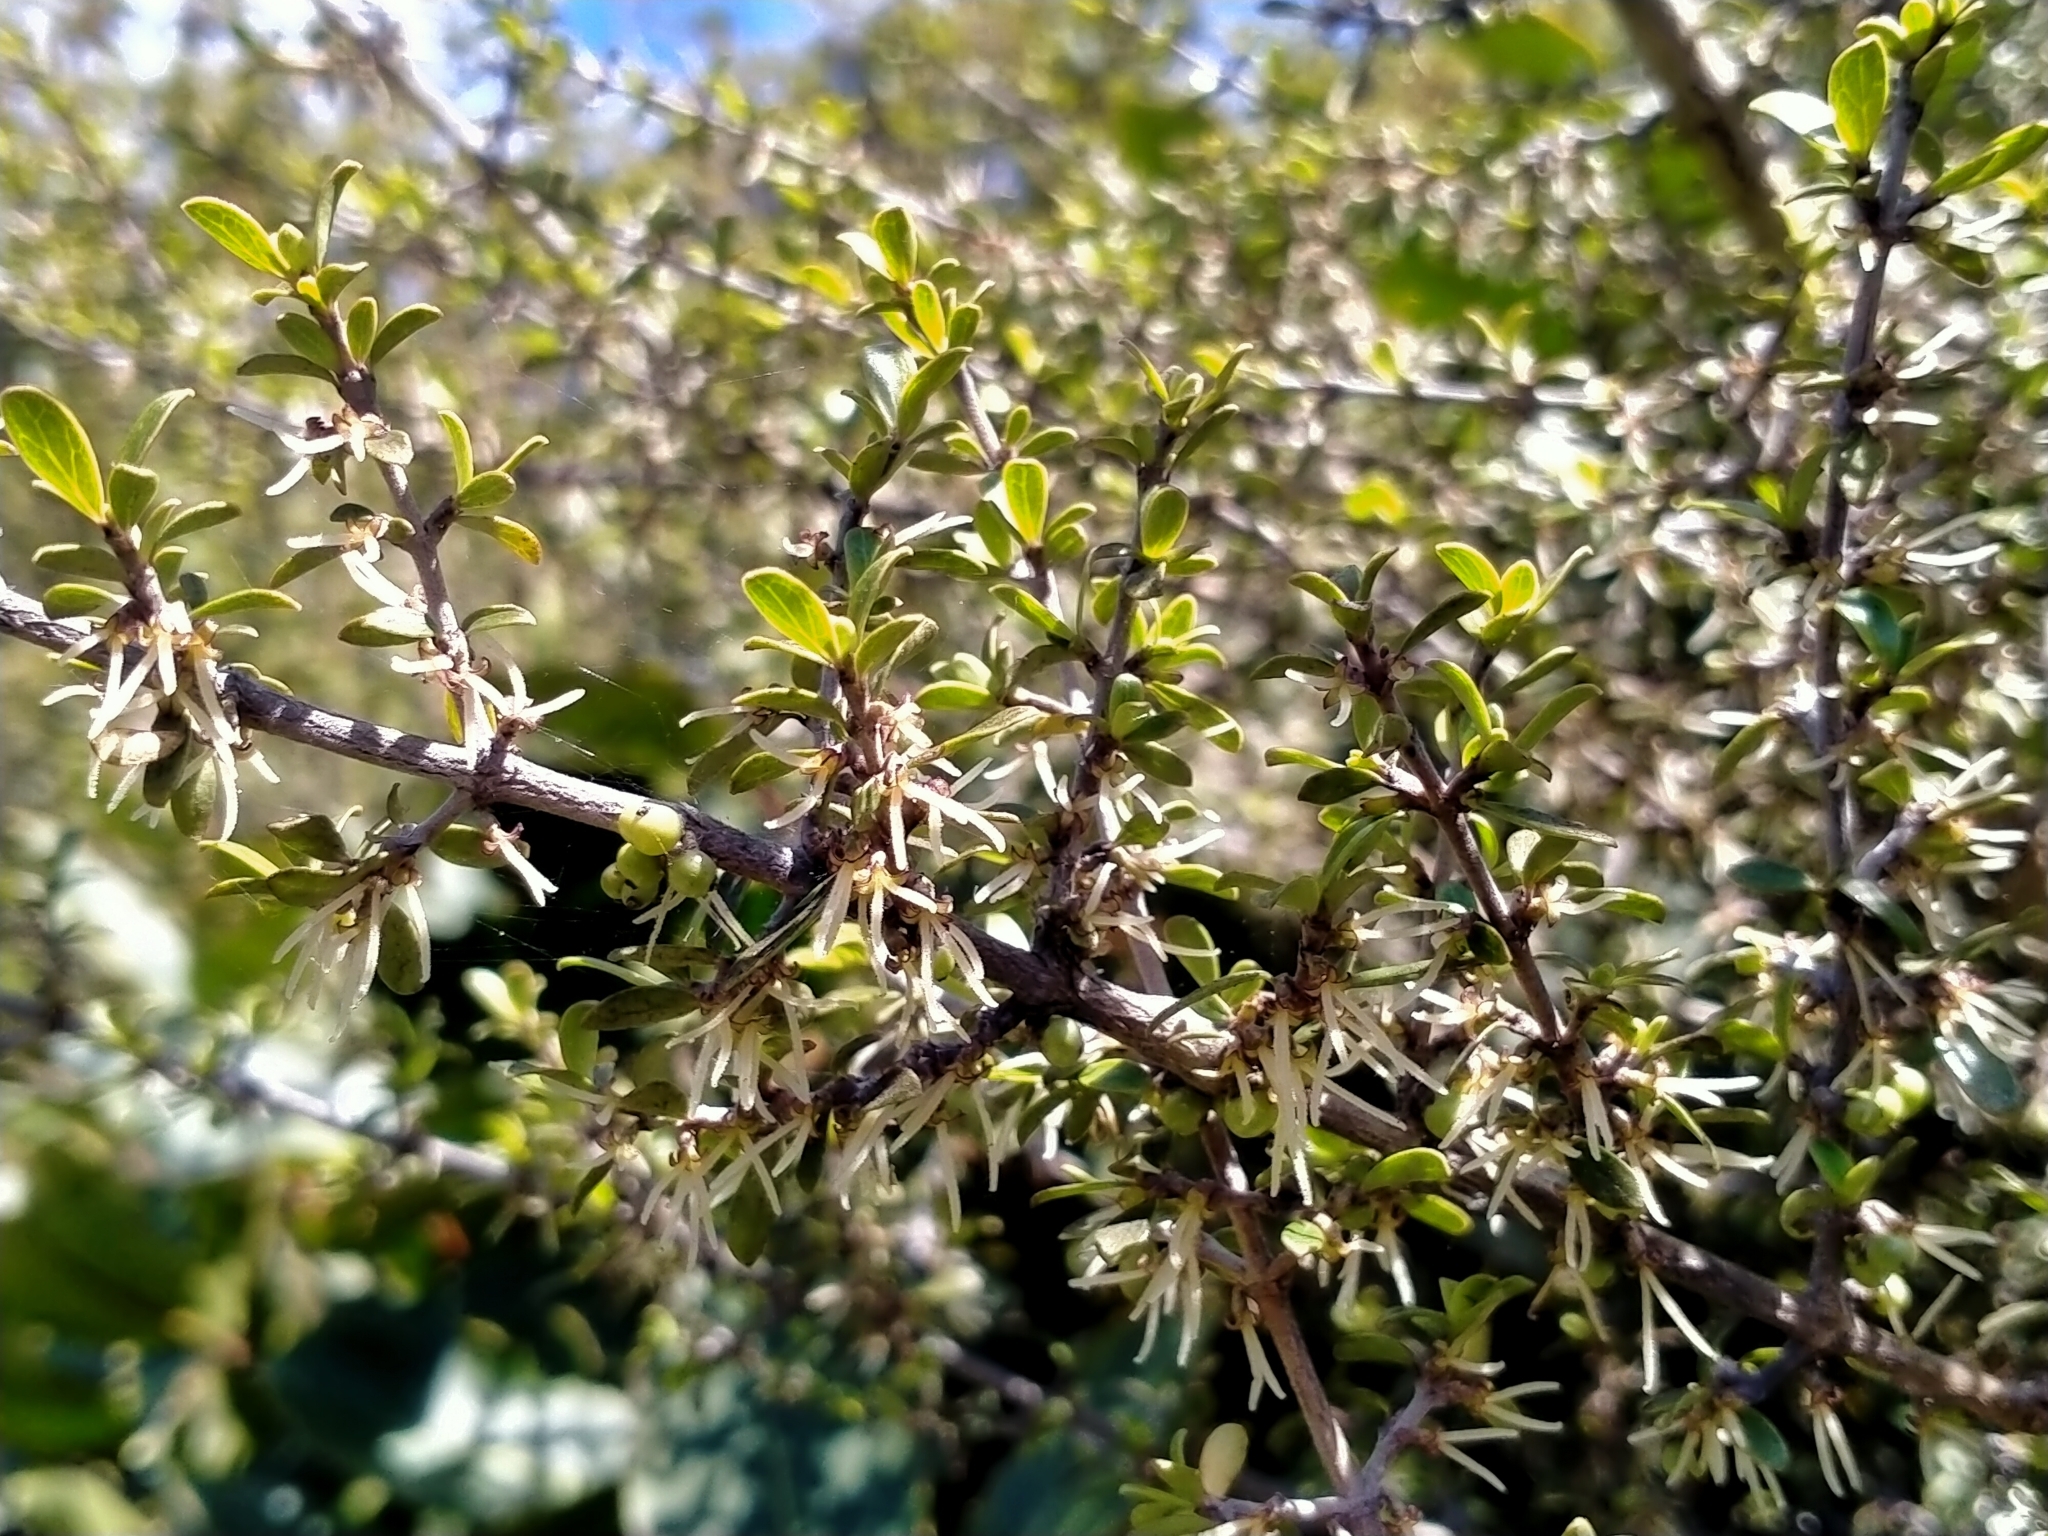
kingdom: Plantae
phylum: Tracheophyta
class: Magnoliopsida
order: Gentianales
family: Rubiaceae
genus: Coprosma
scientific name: Coprosma dumosa
